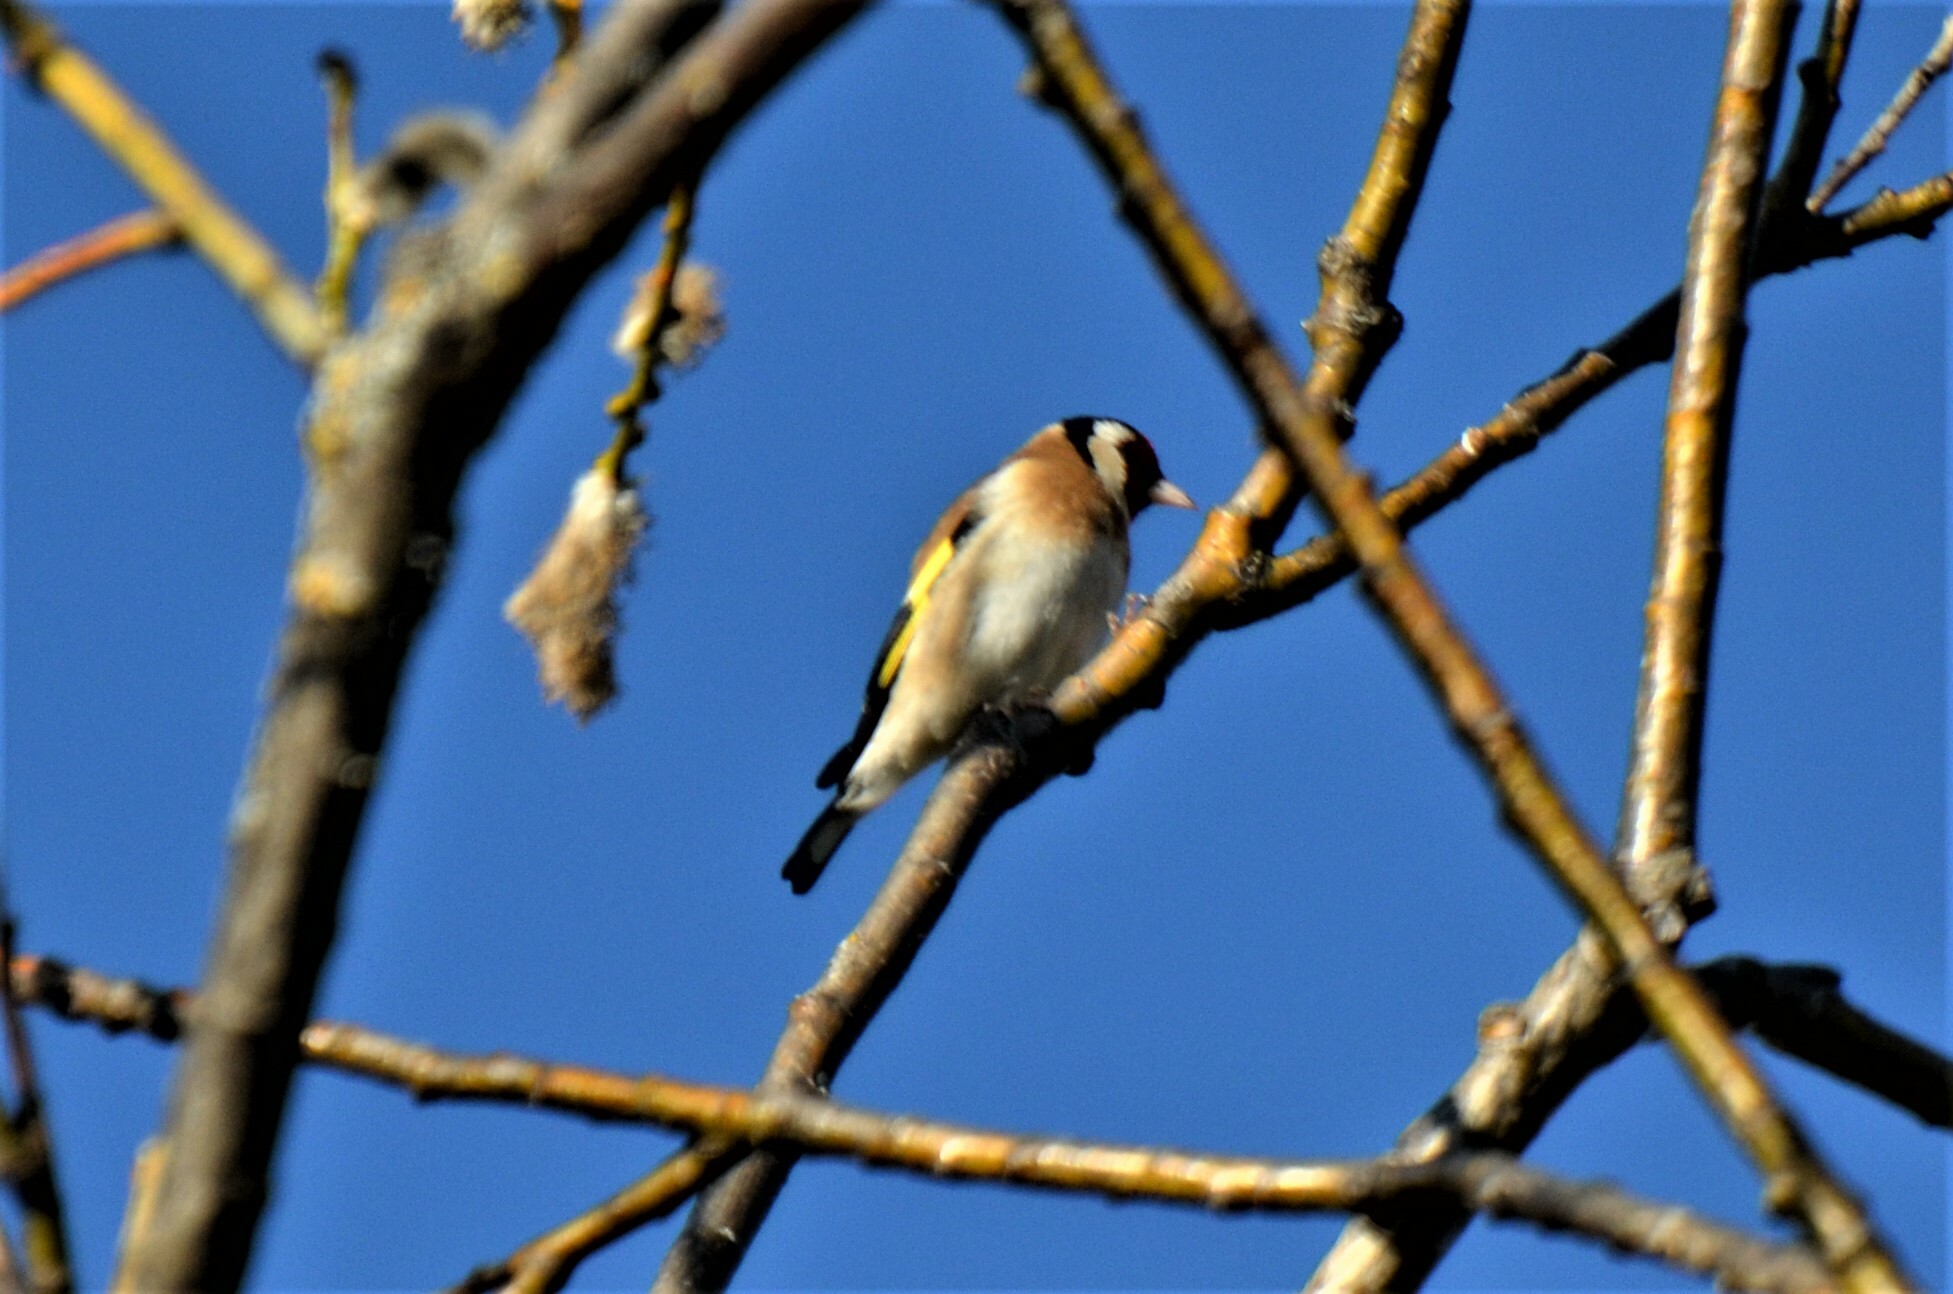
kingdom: Animalia
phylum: Chordata
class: Aves
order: Passeriformes
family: Fringillidae
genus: Carduelis
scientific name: Carduelis carduelis
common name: European goldfinch
